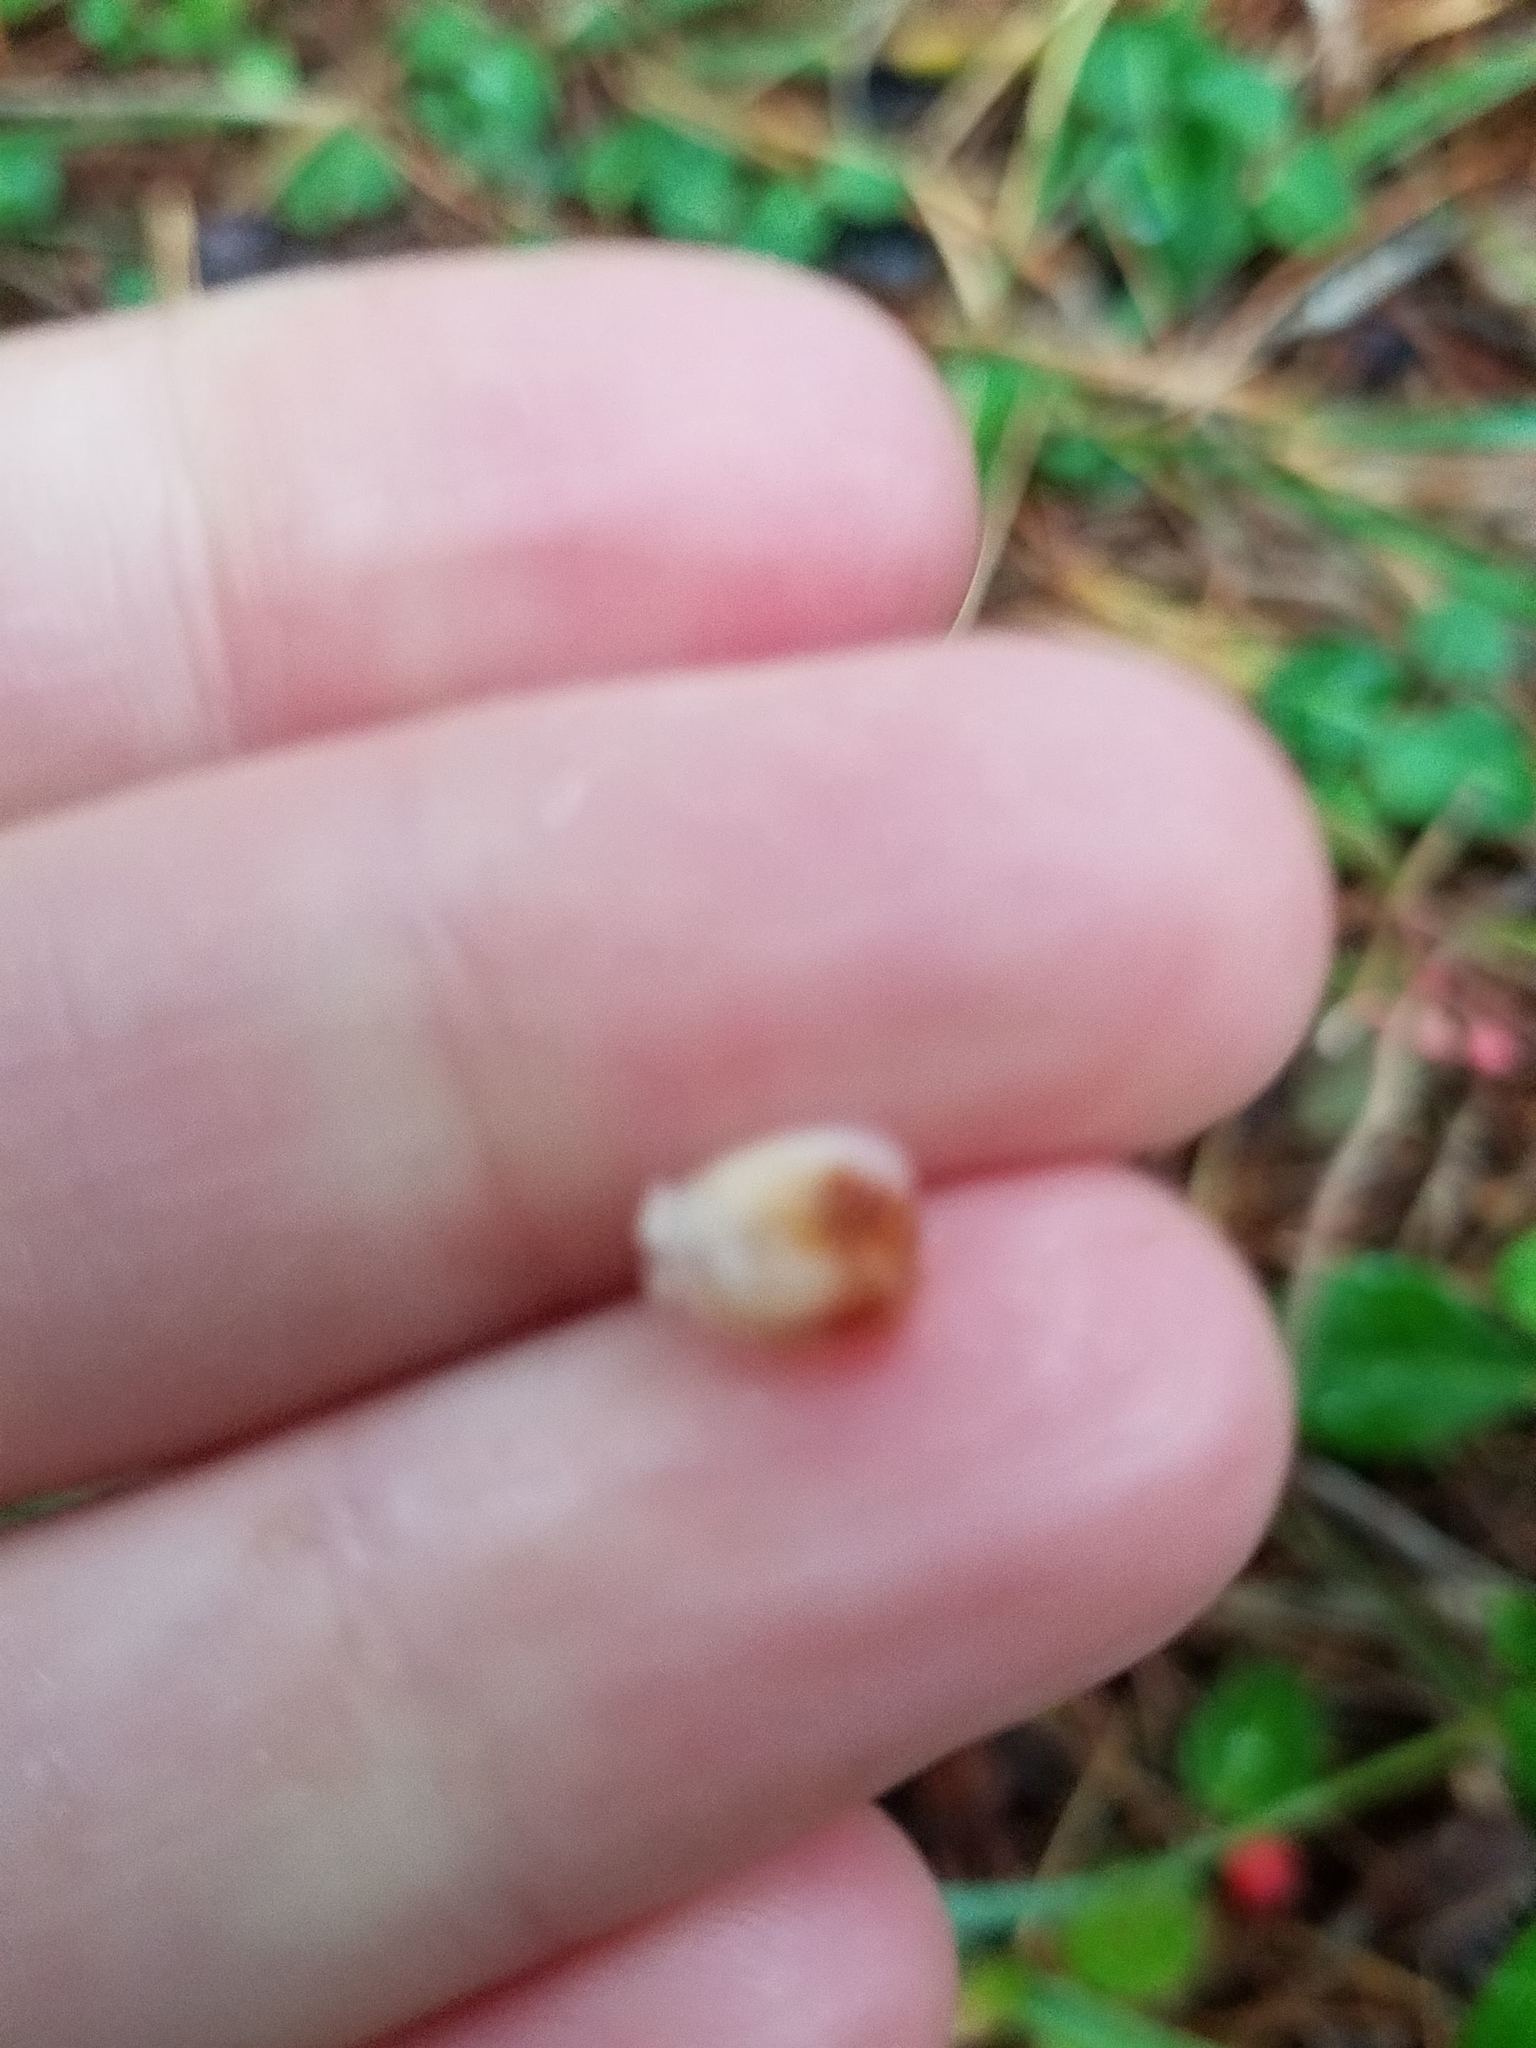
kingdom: Plantae
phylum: Tracheophyta
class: Magnoliopsida
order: Ericales
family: Ericaceae
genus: Gaultheria
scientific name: Gaultheria procumbens
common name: Checkerberry
